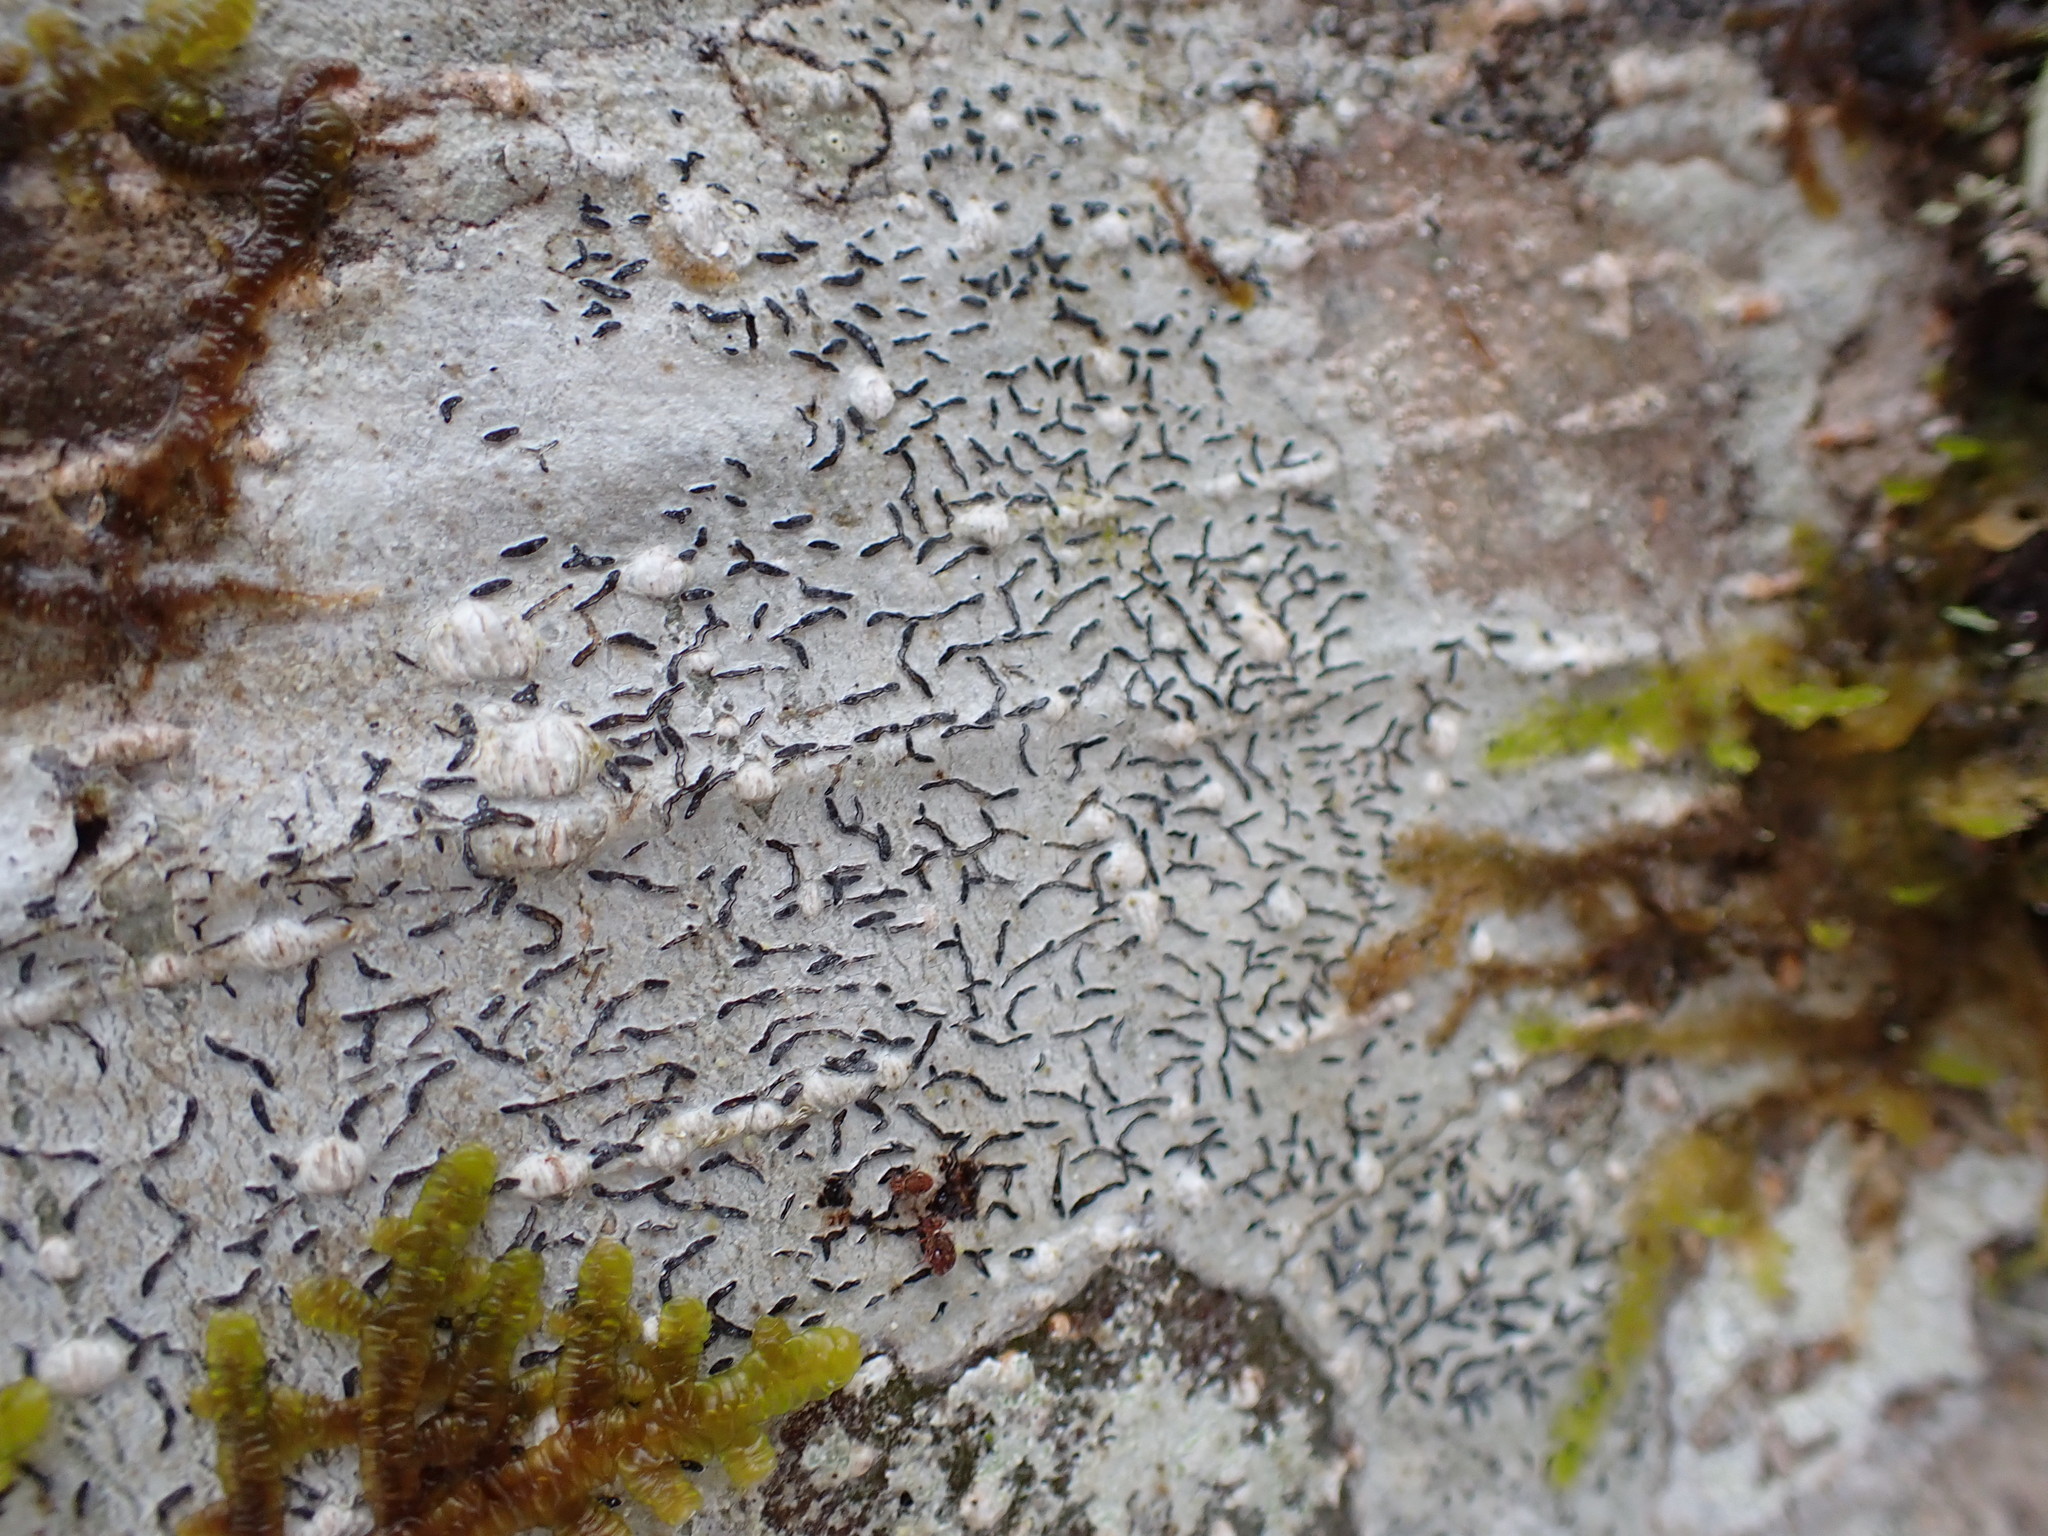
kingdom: Fungi
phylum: Ascomycota
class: Lecanoromycetes
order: Ostropales
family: Graphidaceae
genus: Graphis
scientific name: Graphis scripta
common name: Script lichen
